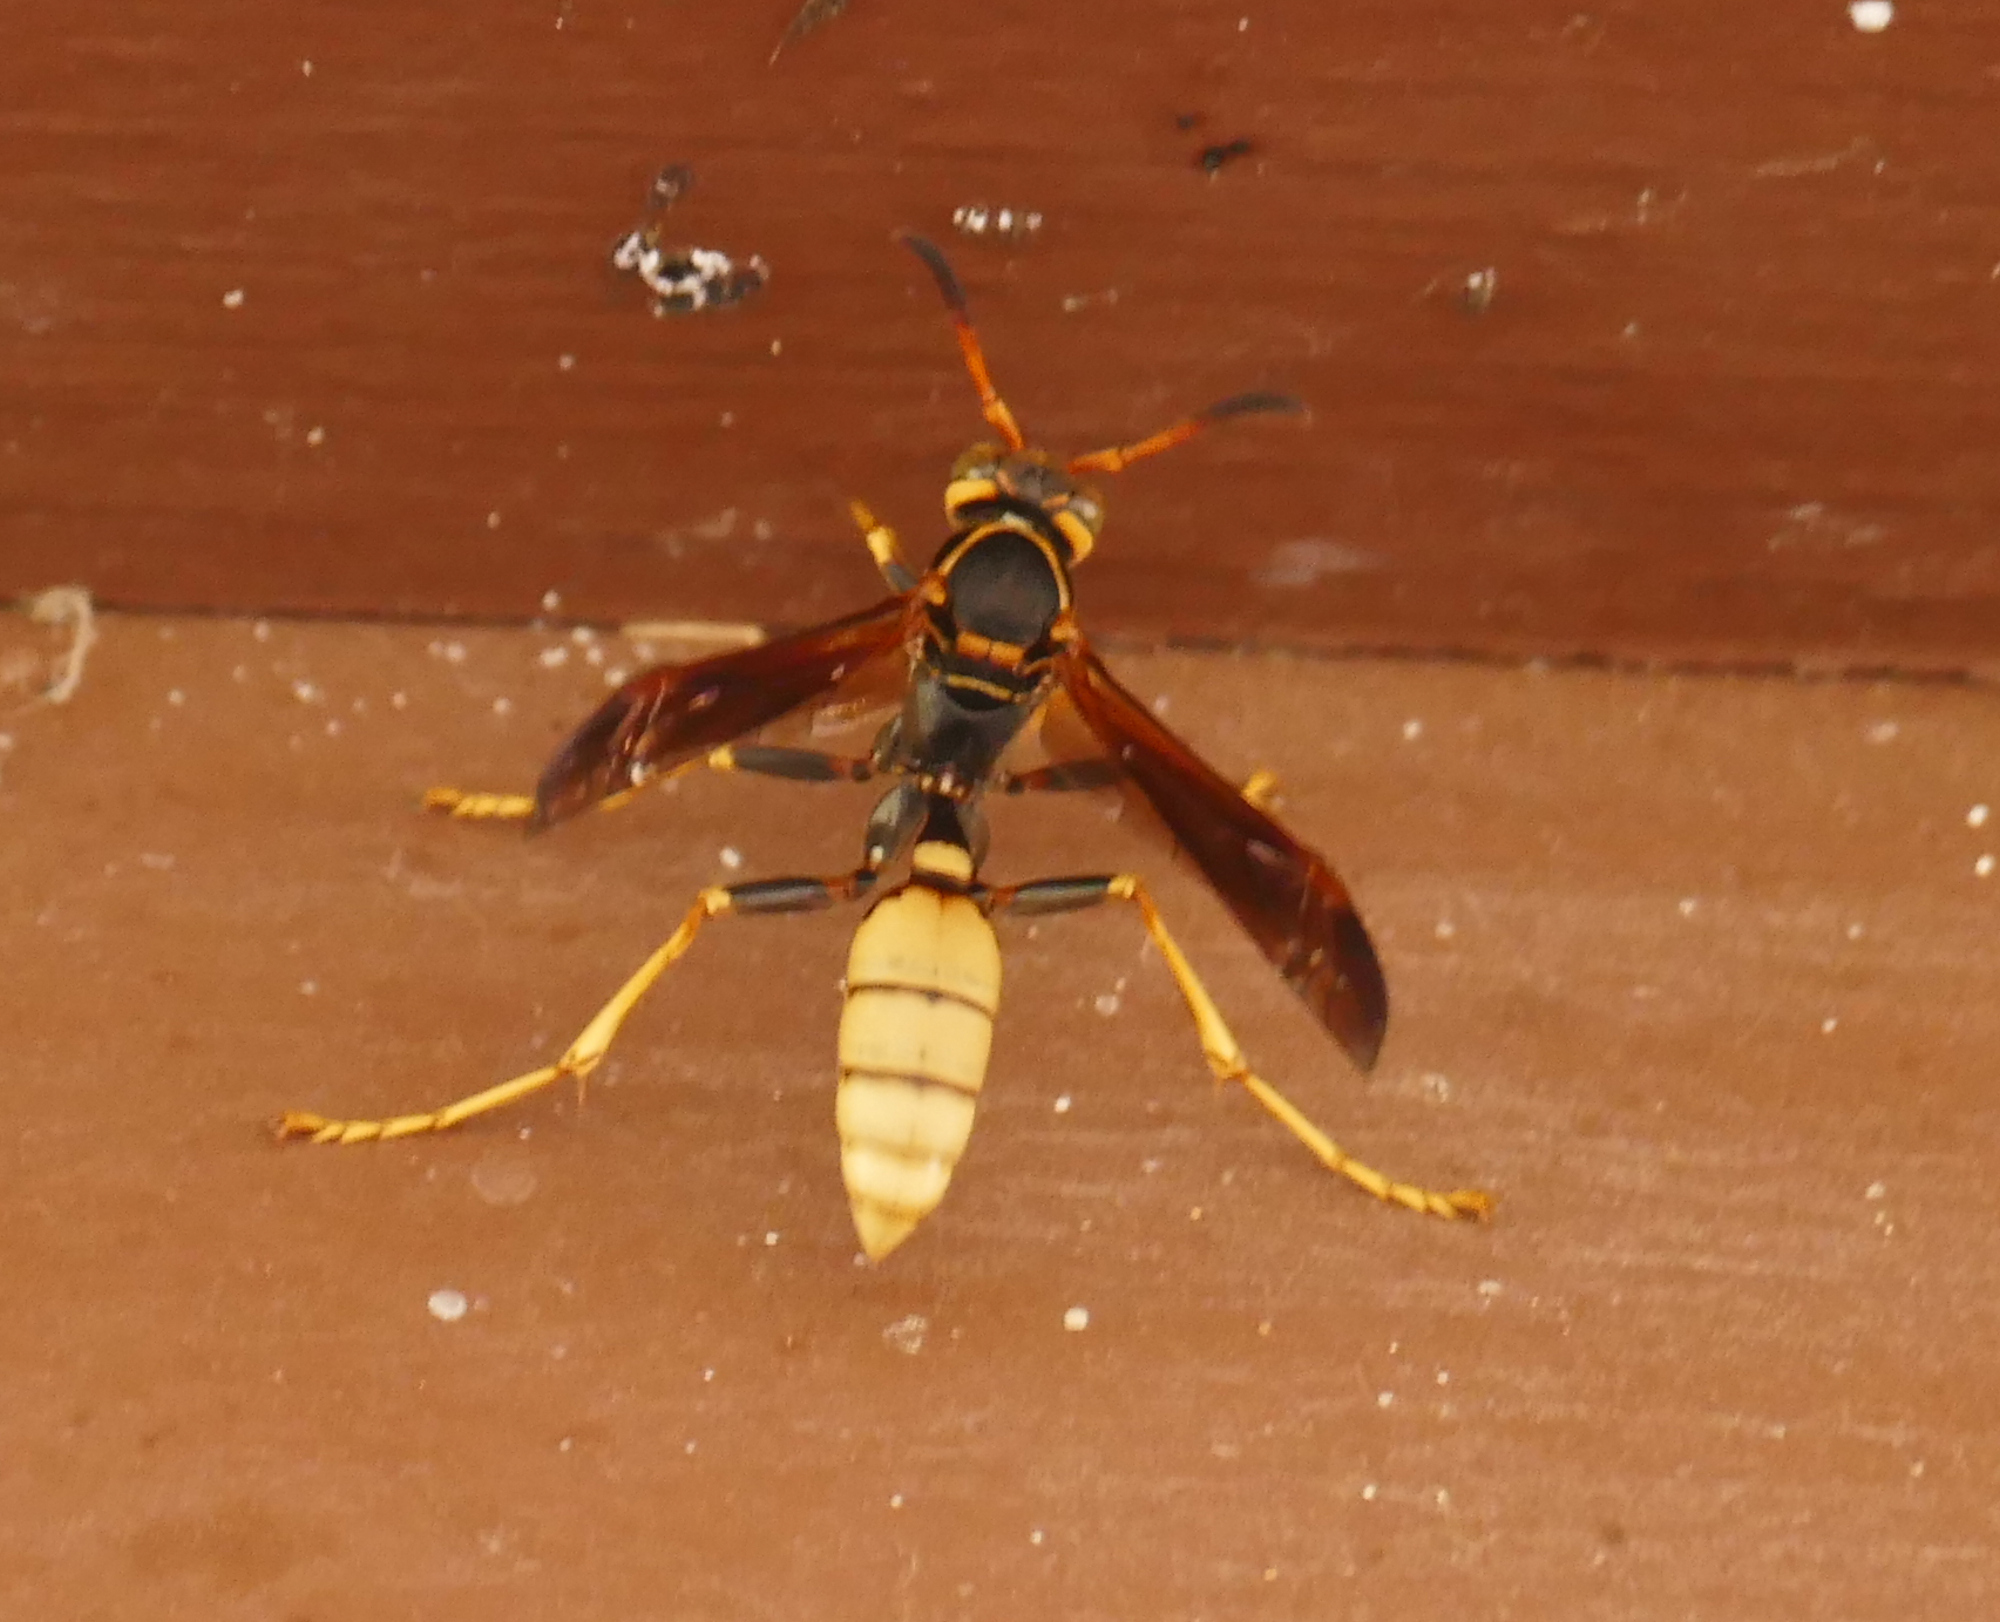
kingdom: Animalia
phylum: Arthropoda
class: Insecta
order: Hymenoptera
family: Vespidae
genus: Mischocyttarus
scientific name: Mischocyttarus navajo
